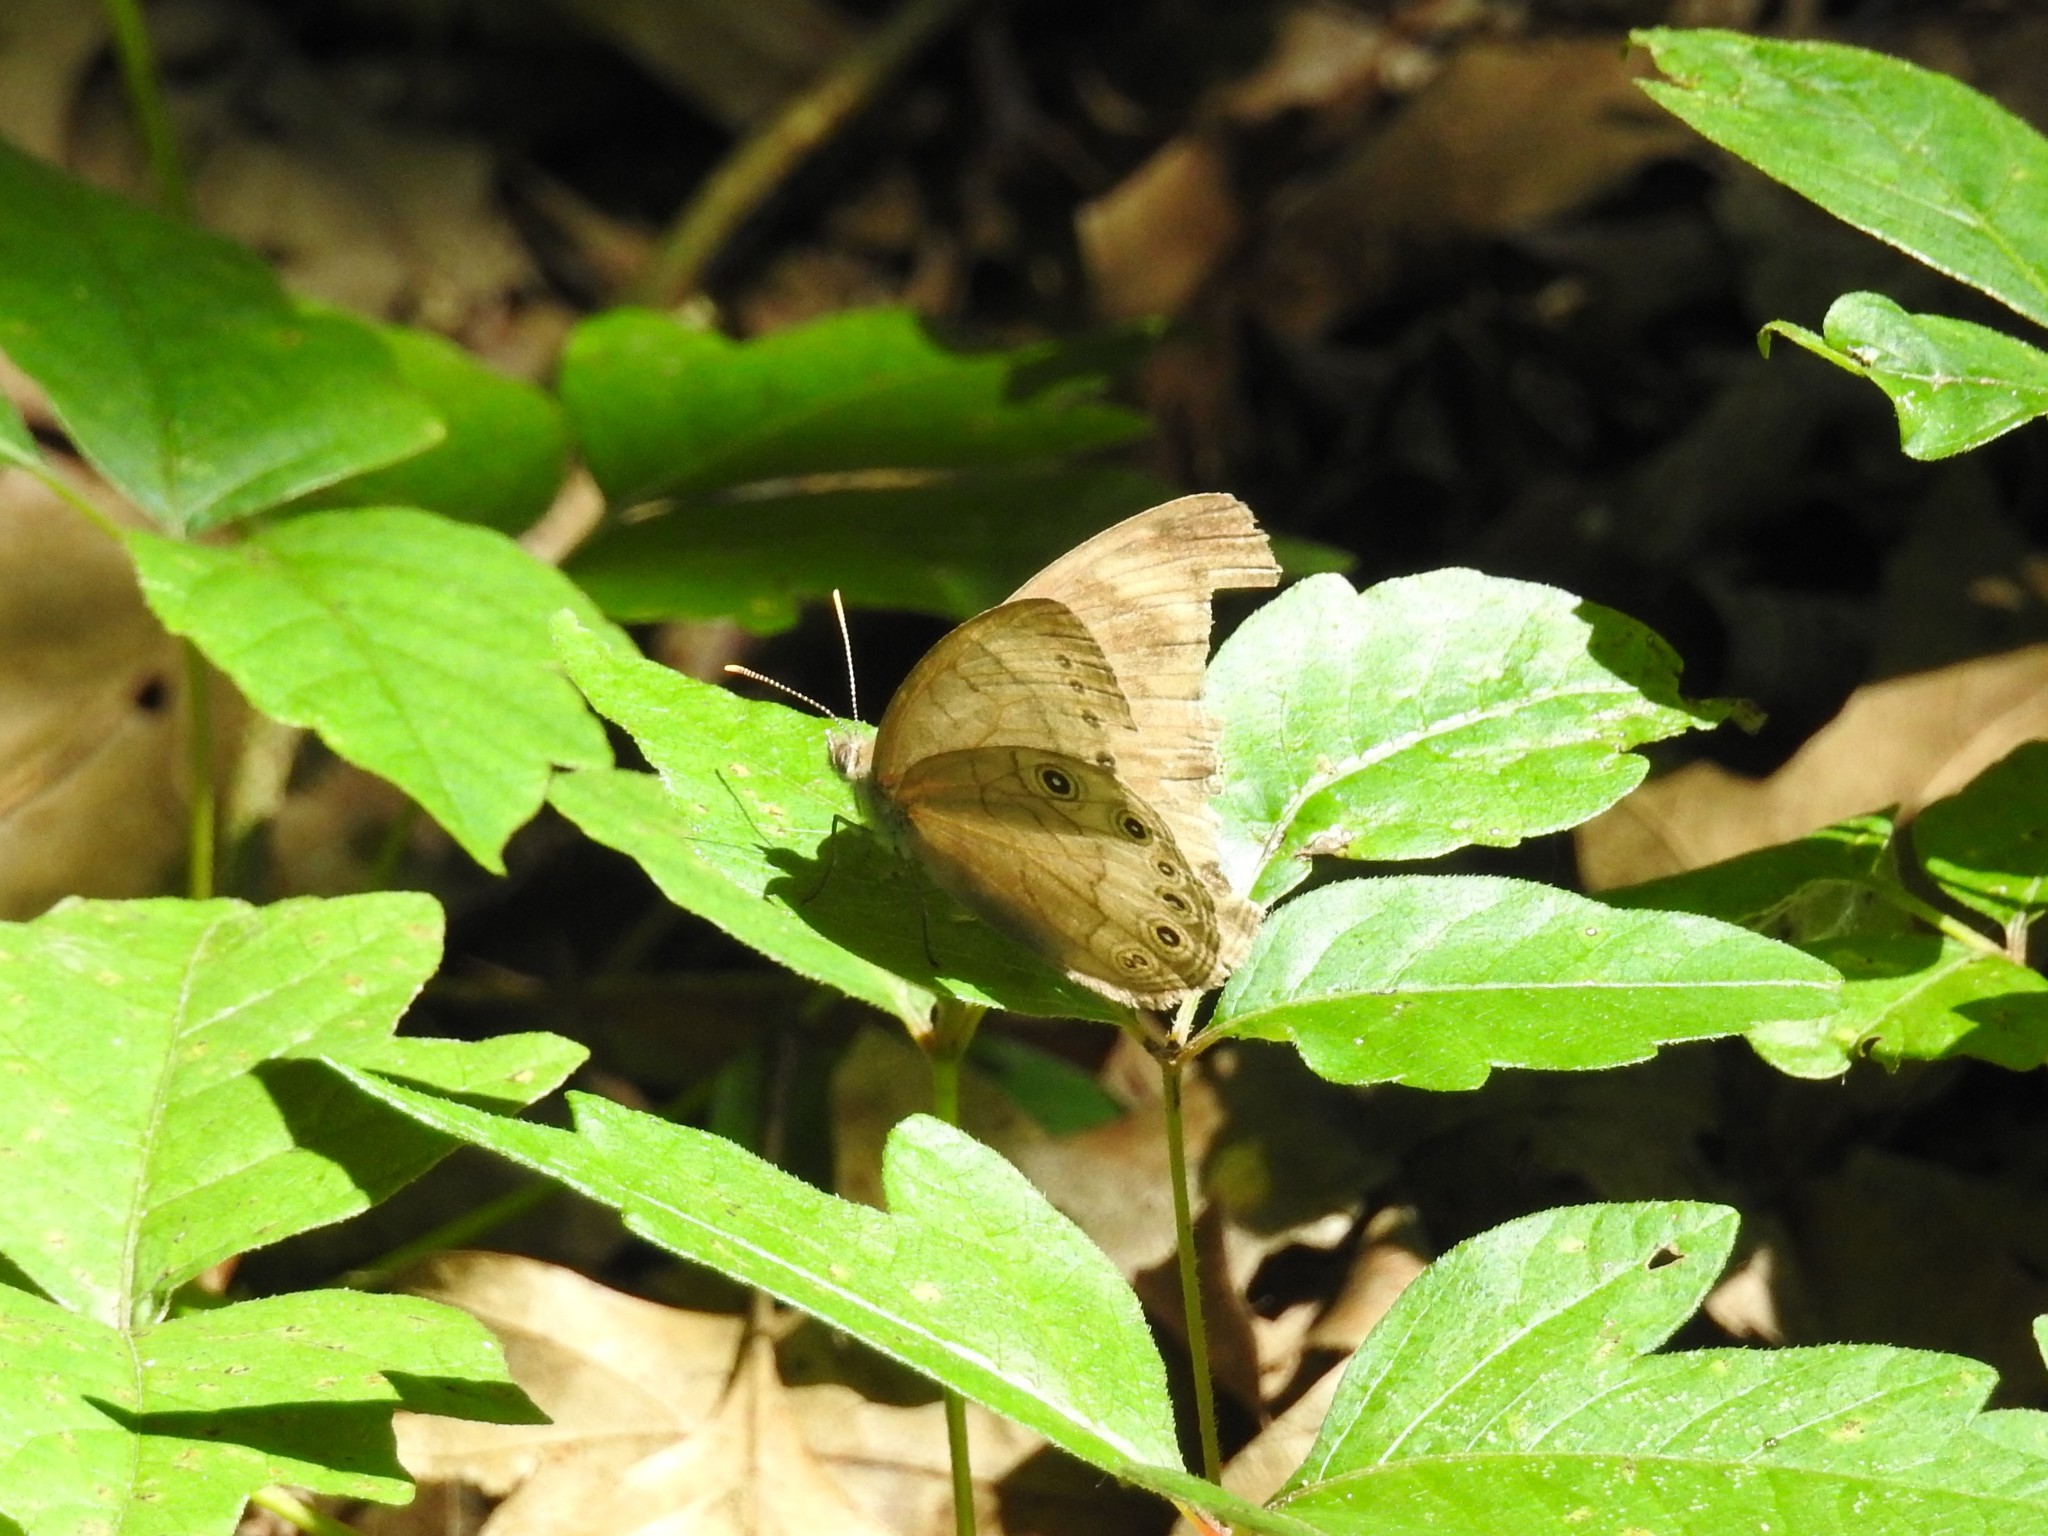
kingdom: Animalia
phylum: Arthropoda
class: Insecta
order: Lepidoptera
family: Nymphalidae
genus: Lethe
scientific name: Lethe eurydice
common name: Eyed brown
